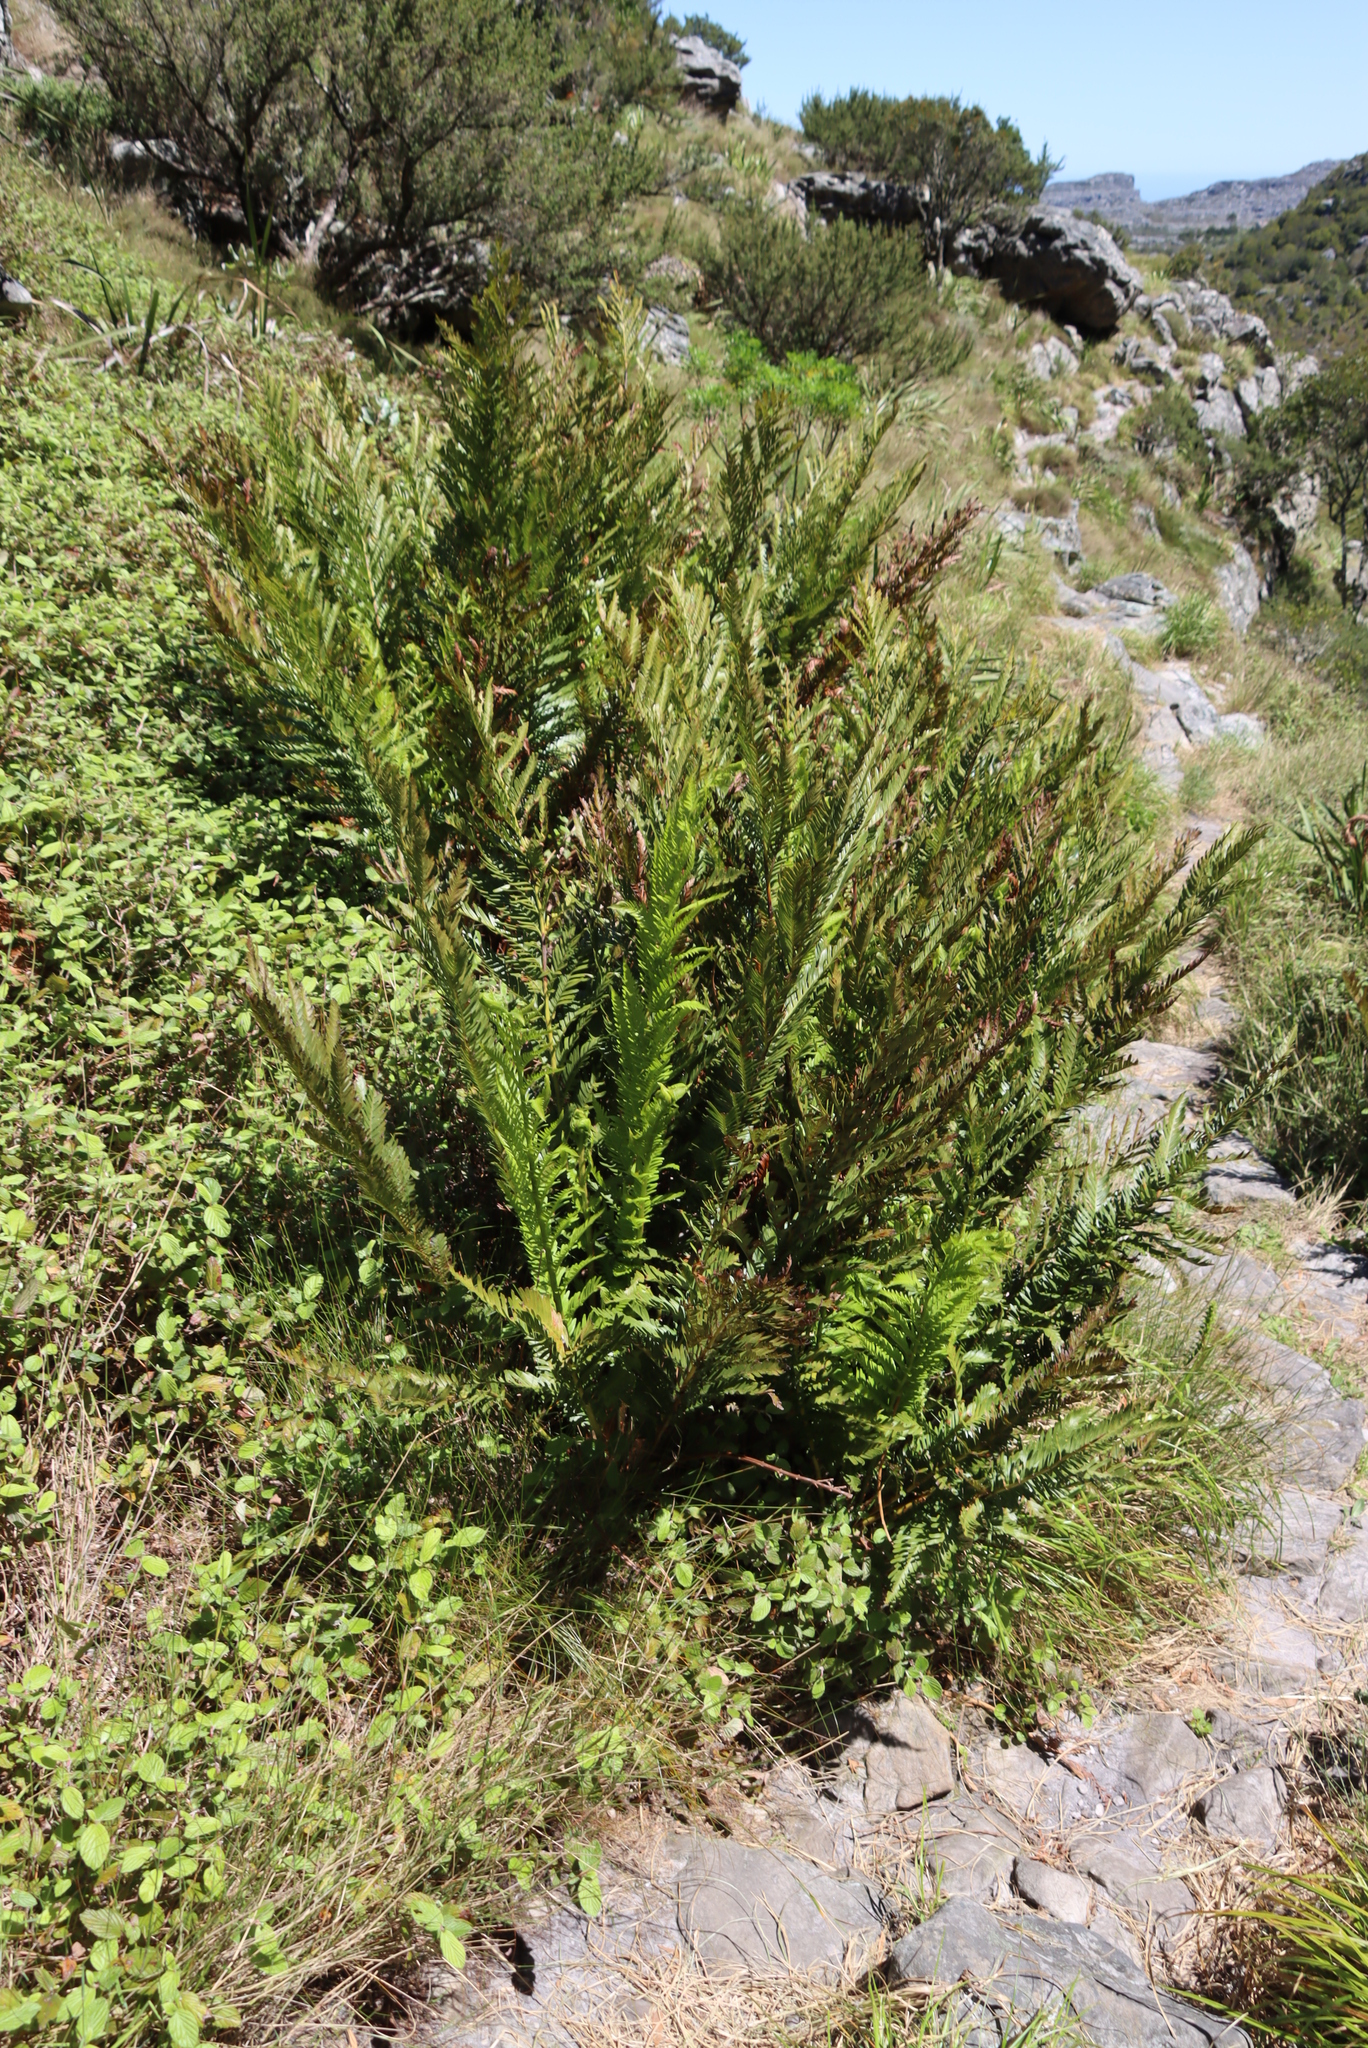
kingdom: Plantae
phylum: Tracheophyta
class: Polypodiopsida
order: Osmundales
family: Osmundaceae
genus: Todea
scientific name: Todea barbara
